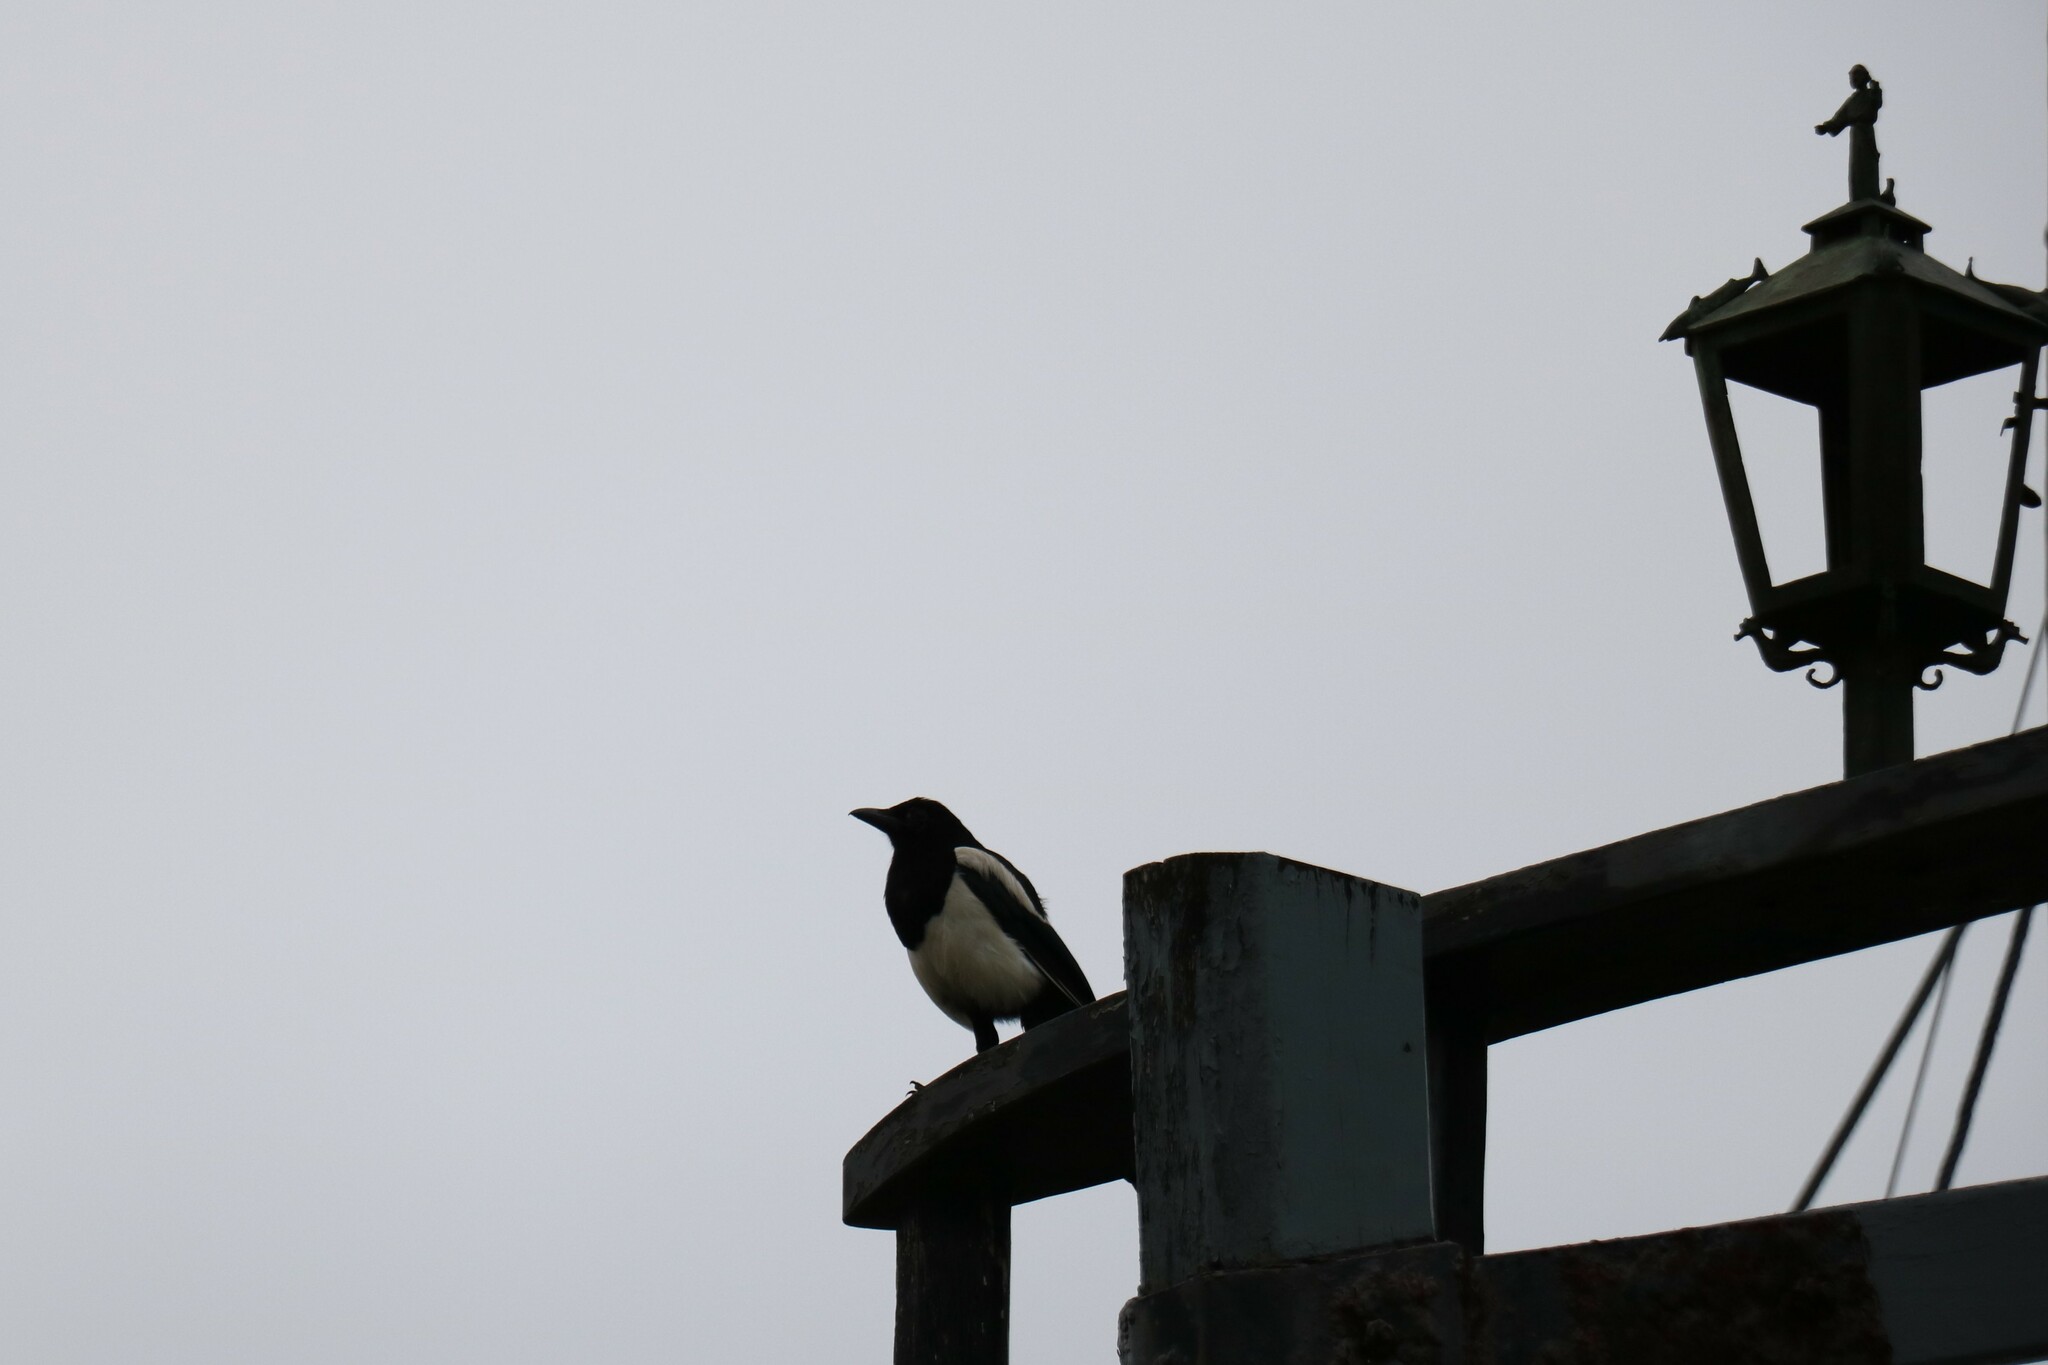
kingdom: Animalia
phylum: Chordata
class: Aves
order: Passeriformes
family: Corvidae
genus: Pica
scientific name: Pica pica
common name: Eurasian magpie
